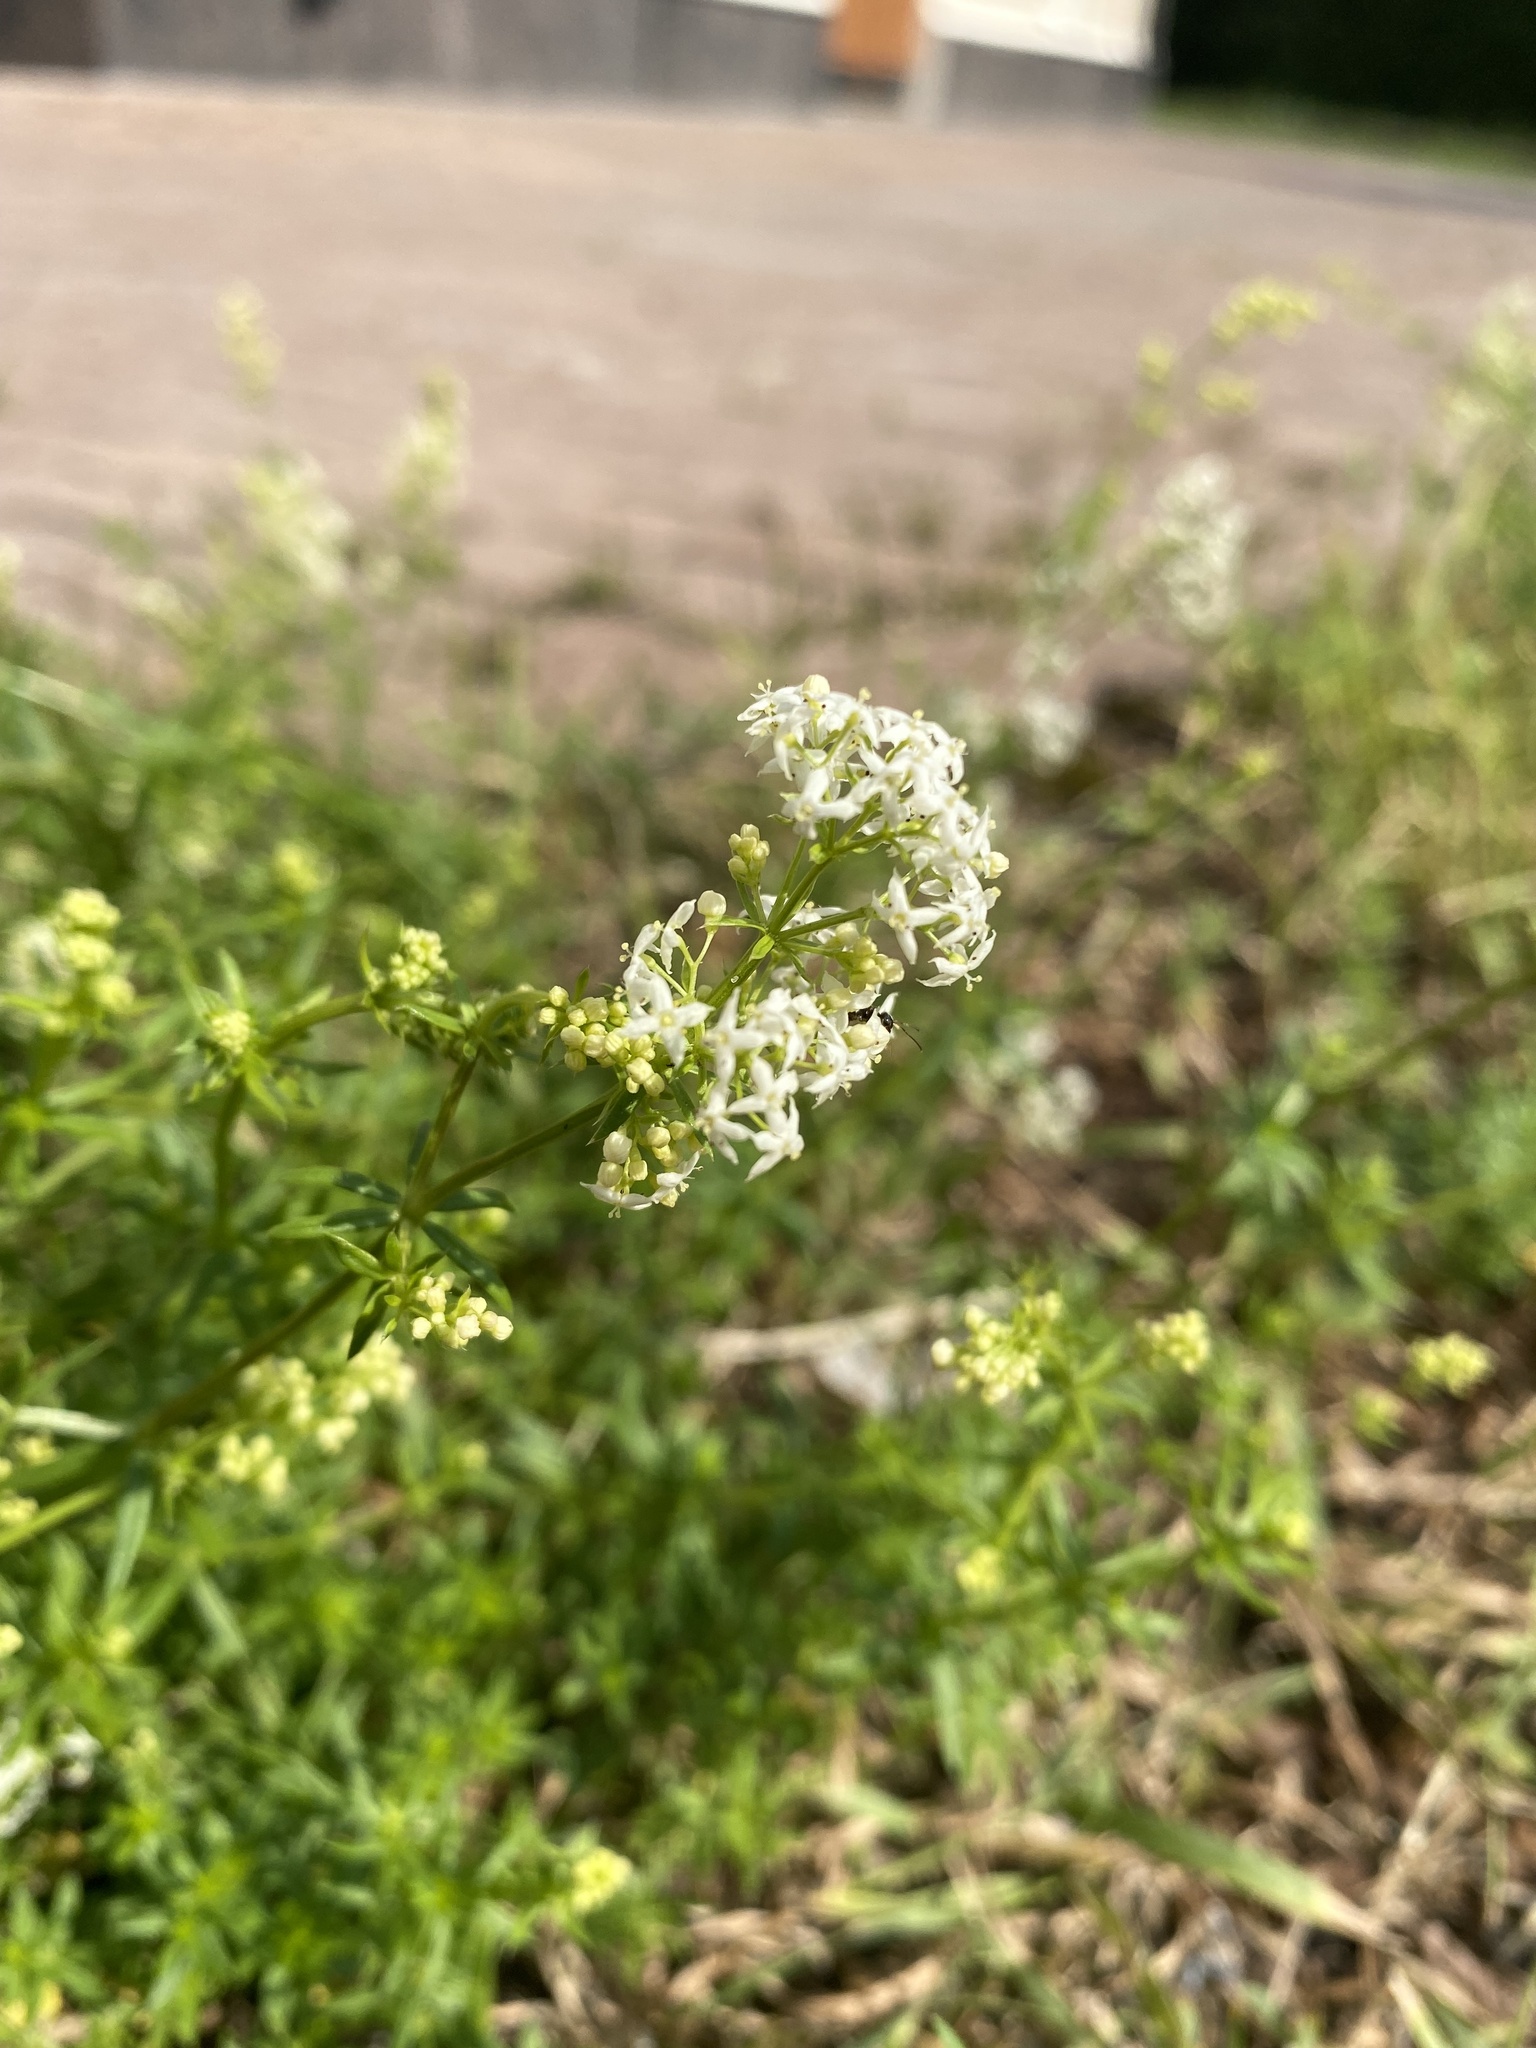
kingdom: Plantae
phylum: Tracheophyta
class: Magnoliopsida
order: Gentianales
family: Rubiaceae
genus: Galium
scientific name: Galium mollugo
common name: Hedge bedstraw
